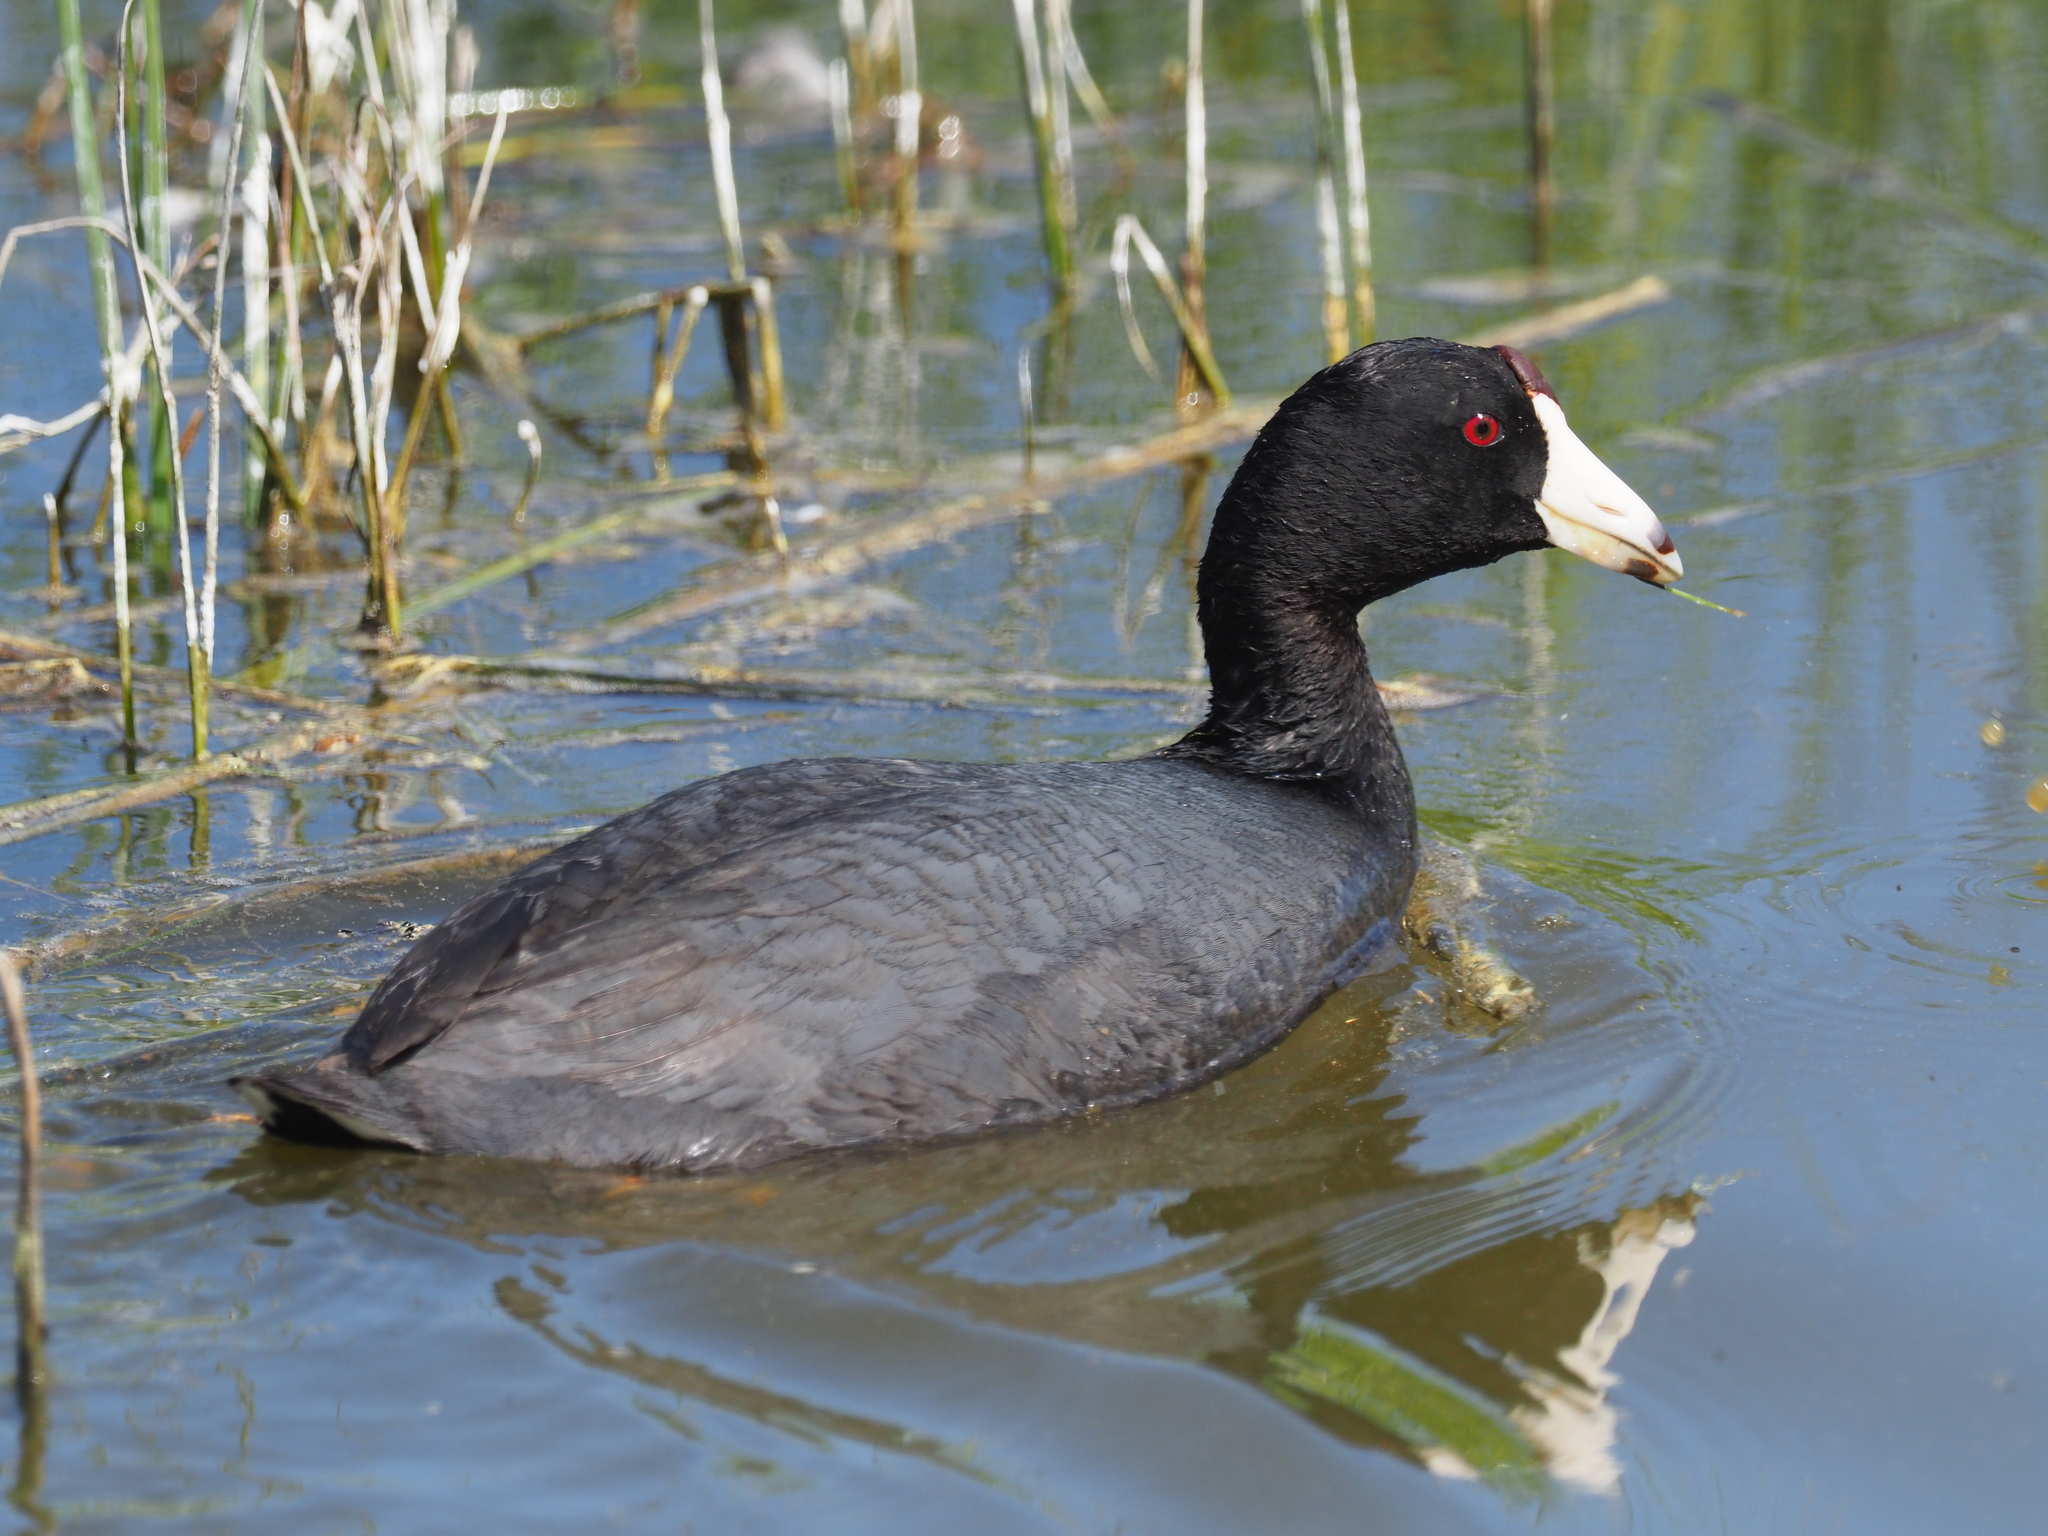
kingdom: Animalia
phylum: Chordata
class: Aves
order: Gruiformes
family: Rallidae
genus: Fulica
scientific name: Fulica americana
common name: American coot
